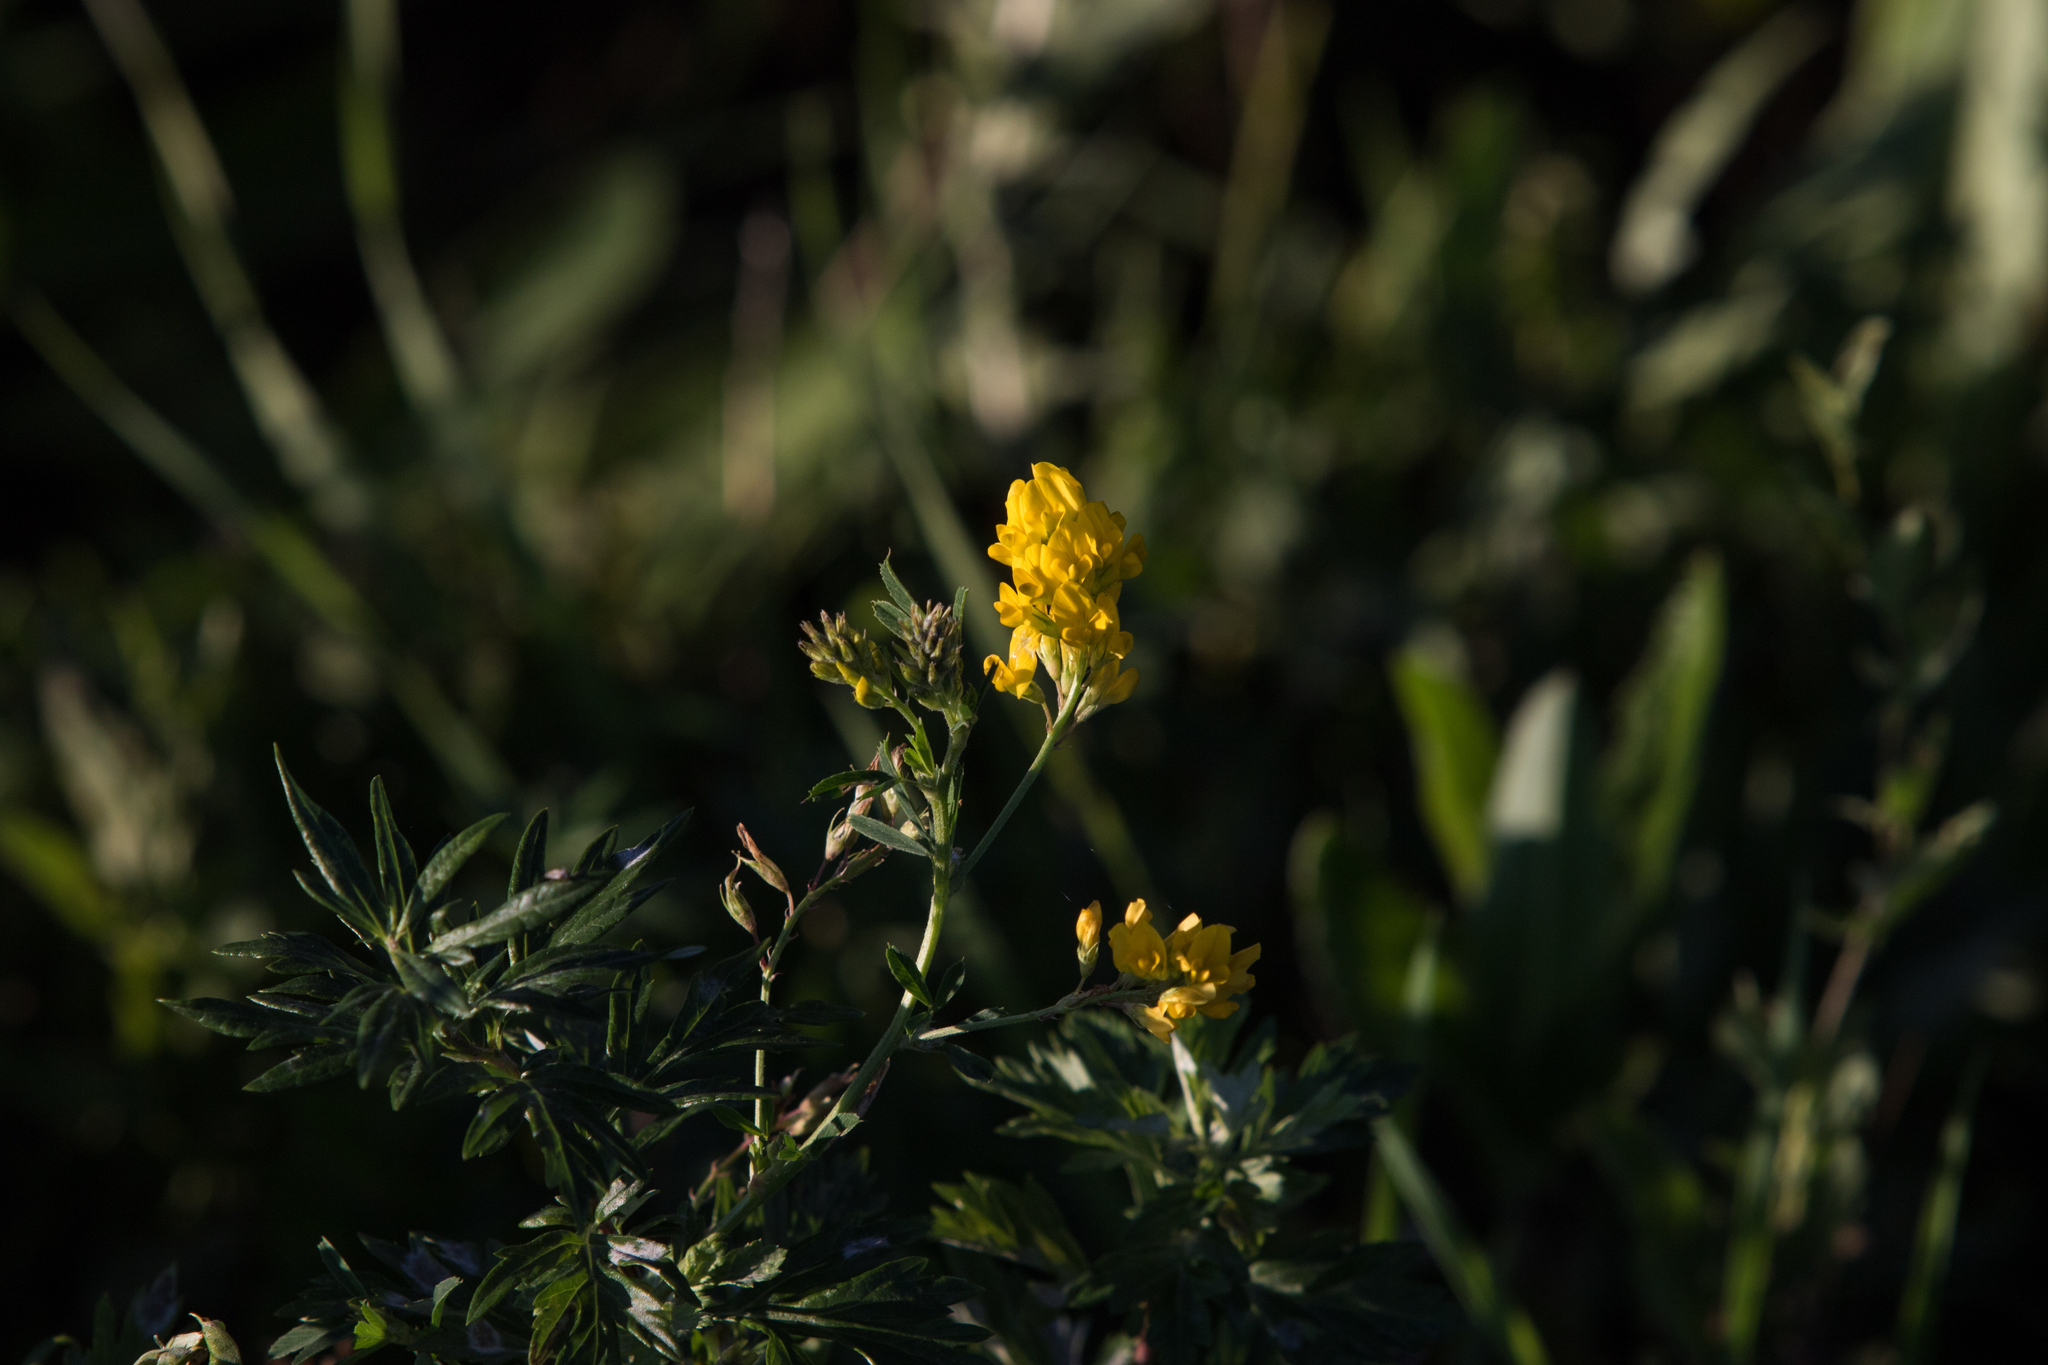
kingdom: Plantae
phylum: Tracheophyta
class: Magnoliopsida
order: Fabales
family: Fabaceae
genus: Medicago
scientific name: Medicago falcata
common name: Sickle medick
